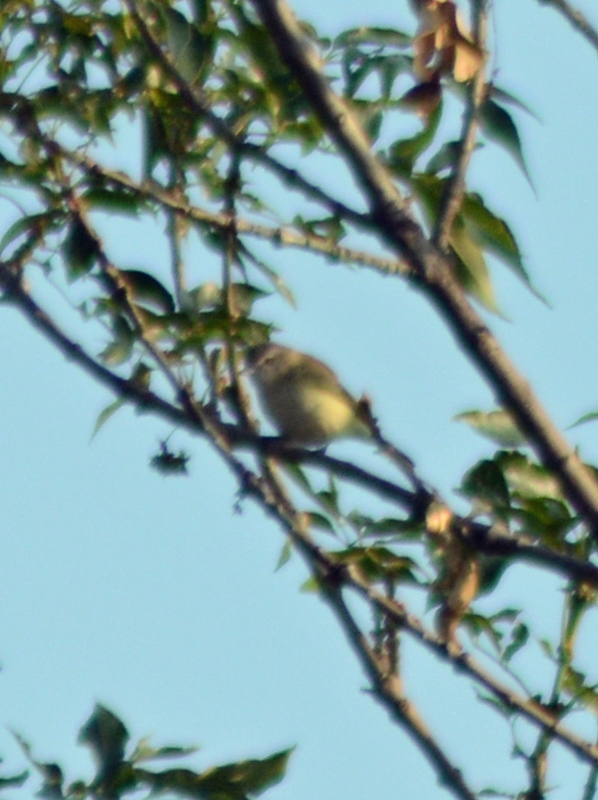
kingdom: Animalia
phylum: Chordata
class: Aves
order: Passeriformes
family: Vireonidae
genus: Vireo
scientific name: Vireo gilvus
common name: Warbling vireo
